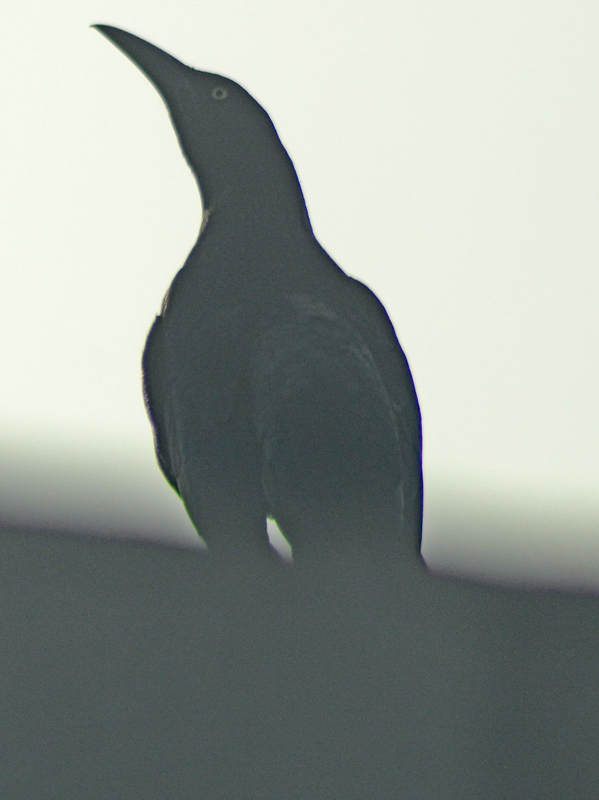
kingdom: Animalia
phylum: Chordata
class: Aves
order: Passeriformes
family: Icteridae
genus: Quiscalus
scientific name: Quiscalus mexicanus
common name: Great-tailed grackle
